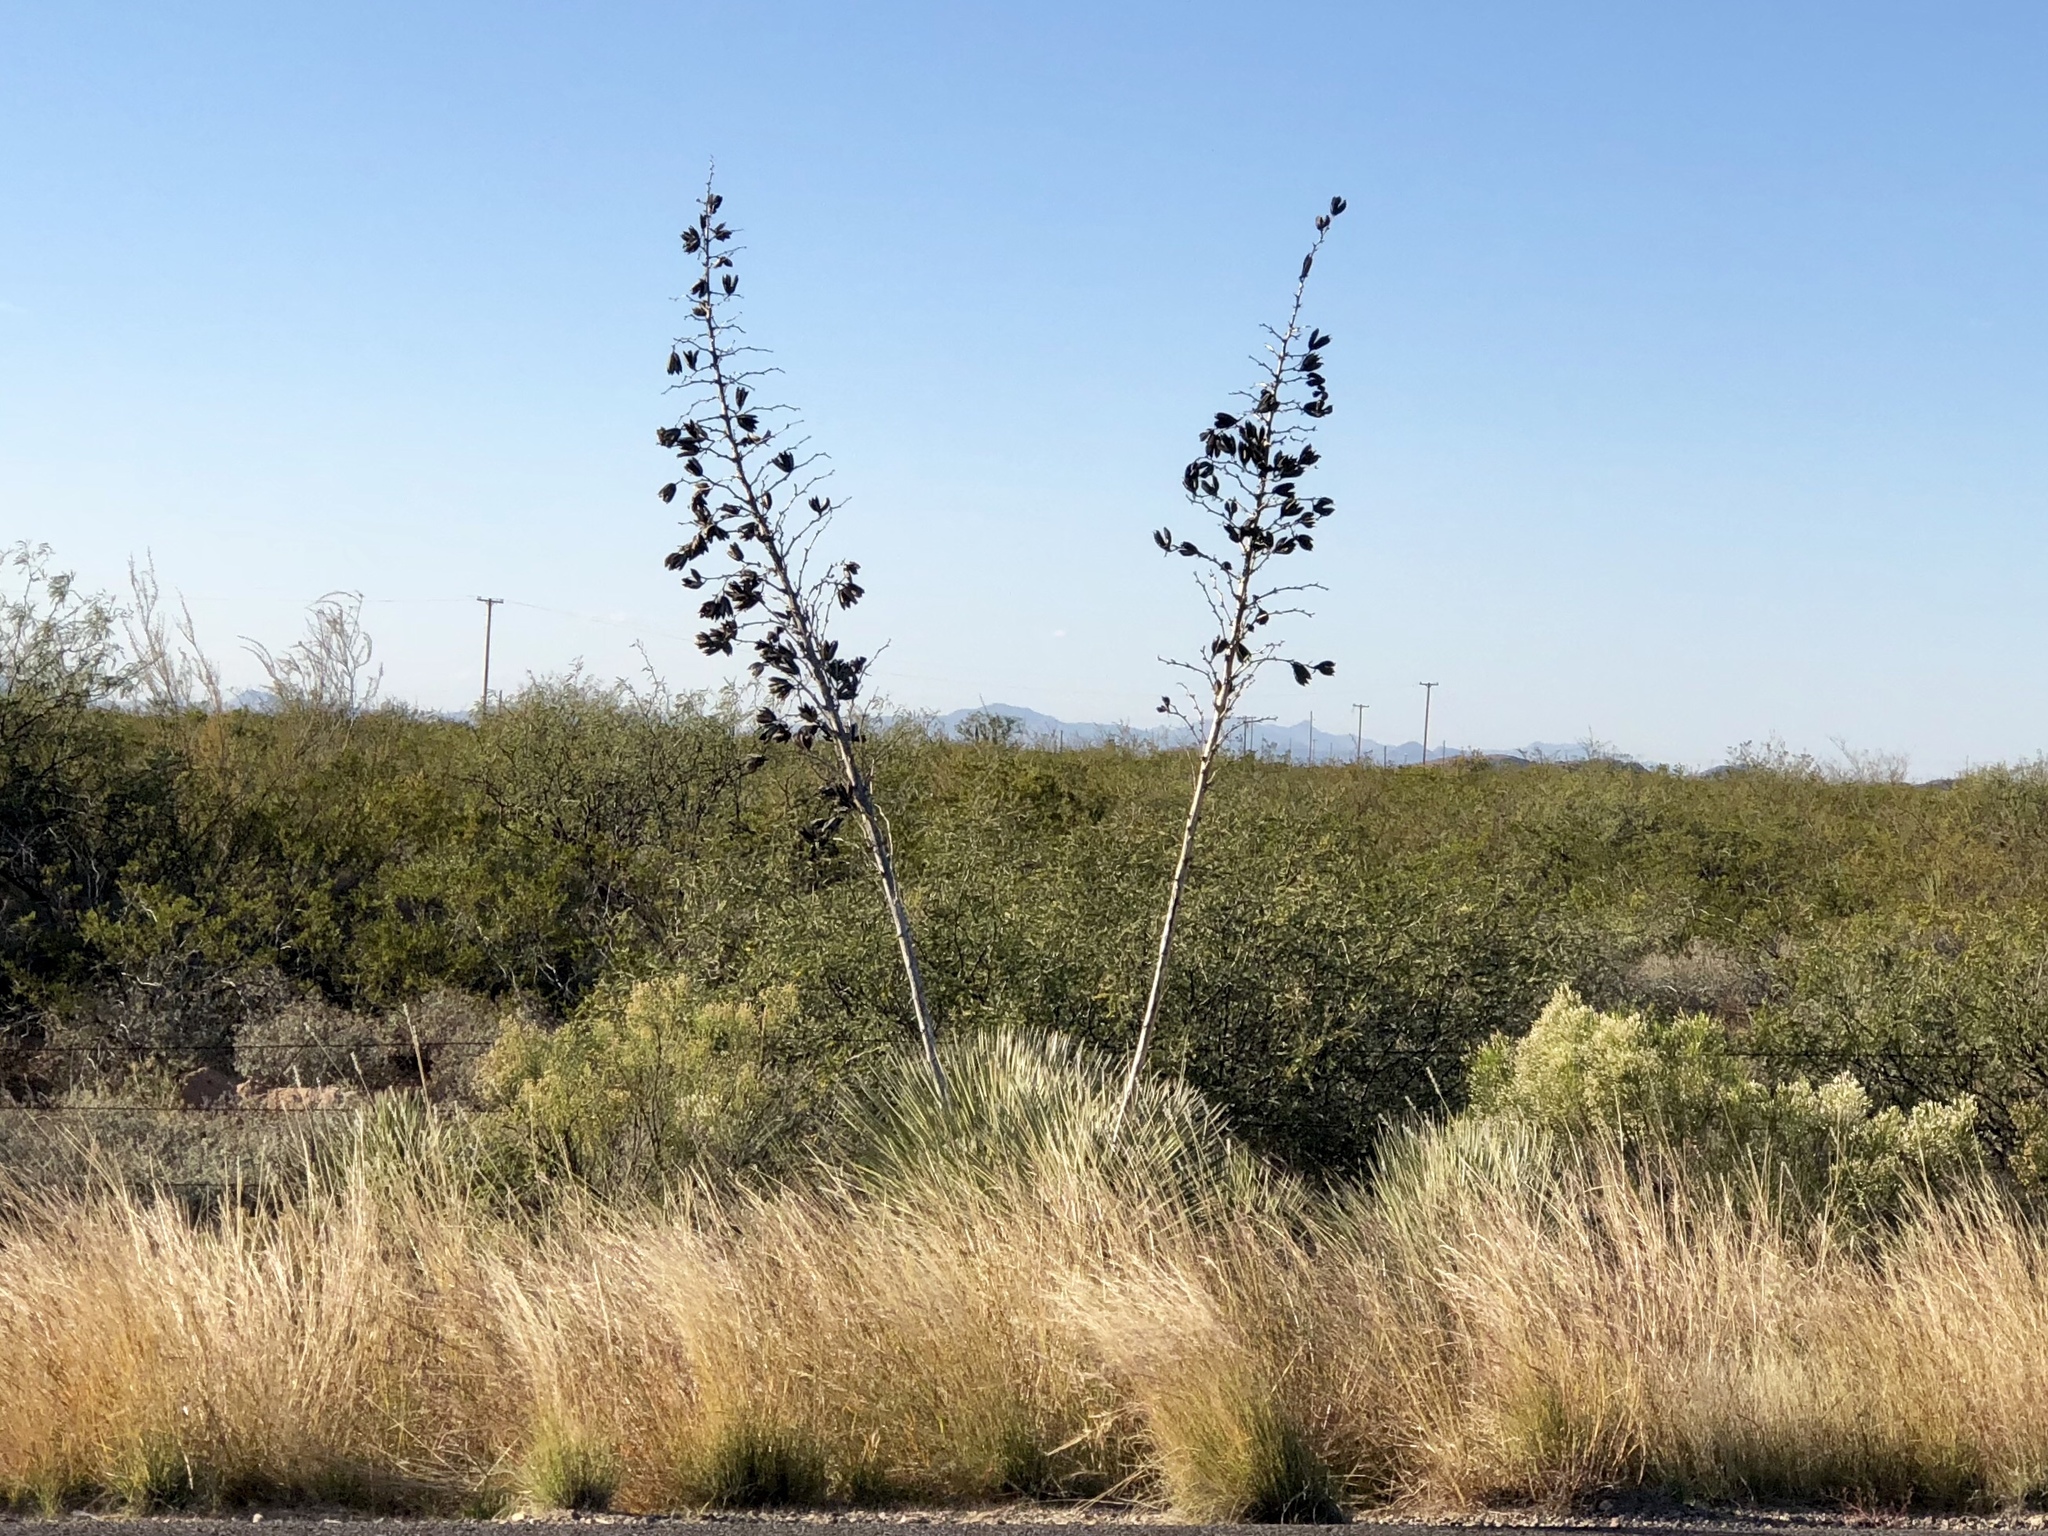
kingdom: Plantae
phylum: Tracheophyta
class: Liliopsida
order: Asparagales
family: Asparagaceae
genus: Yucca
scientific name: Yucca elata
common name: Palmella
